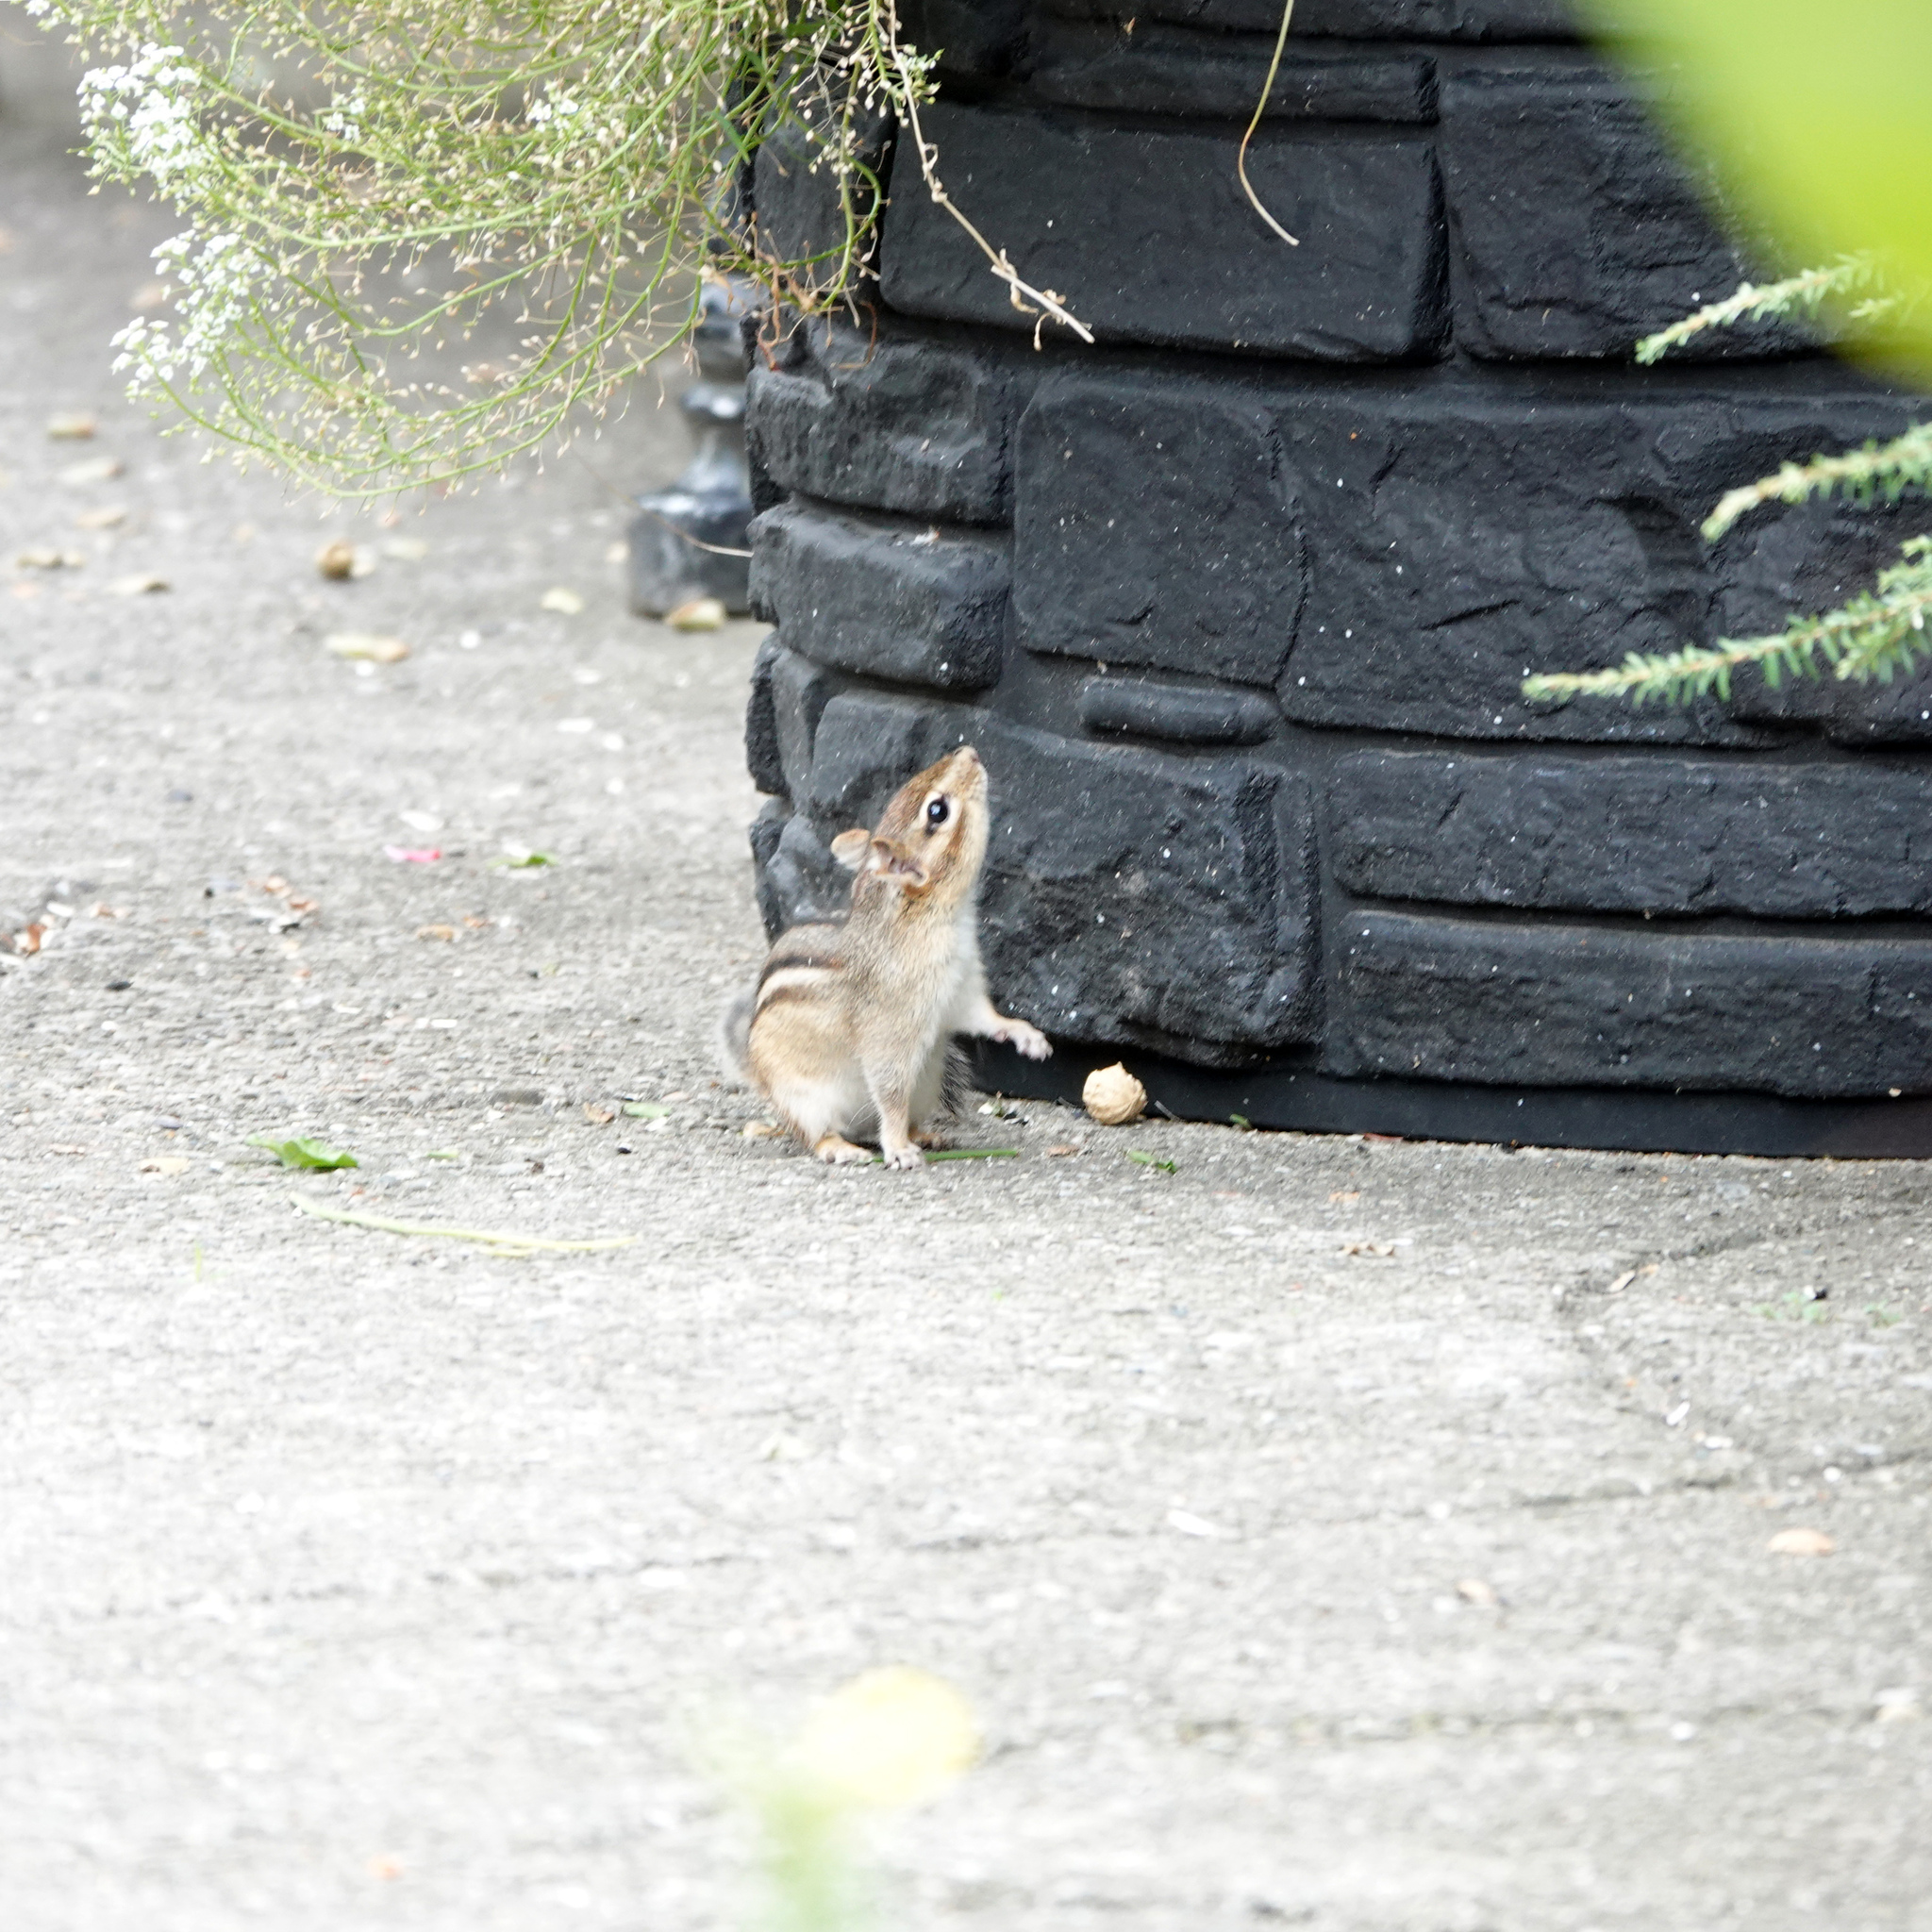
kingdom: Animalia
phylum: Chordata
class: Mammalia
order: Rodentia
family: Sciuridae
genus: Tamias
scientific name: Tamias striatus
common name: Eastern chipmunk
